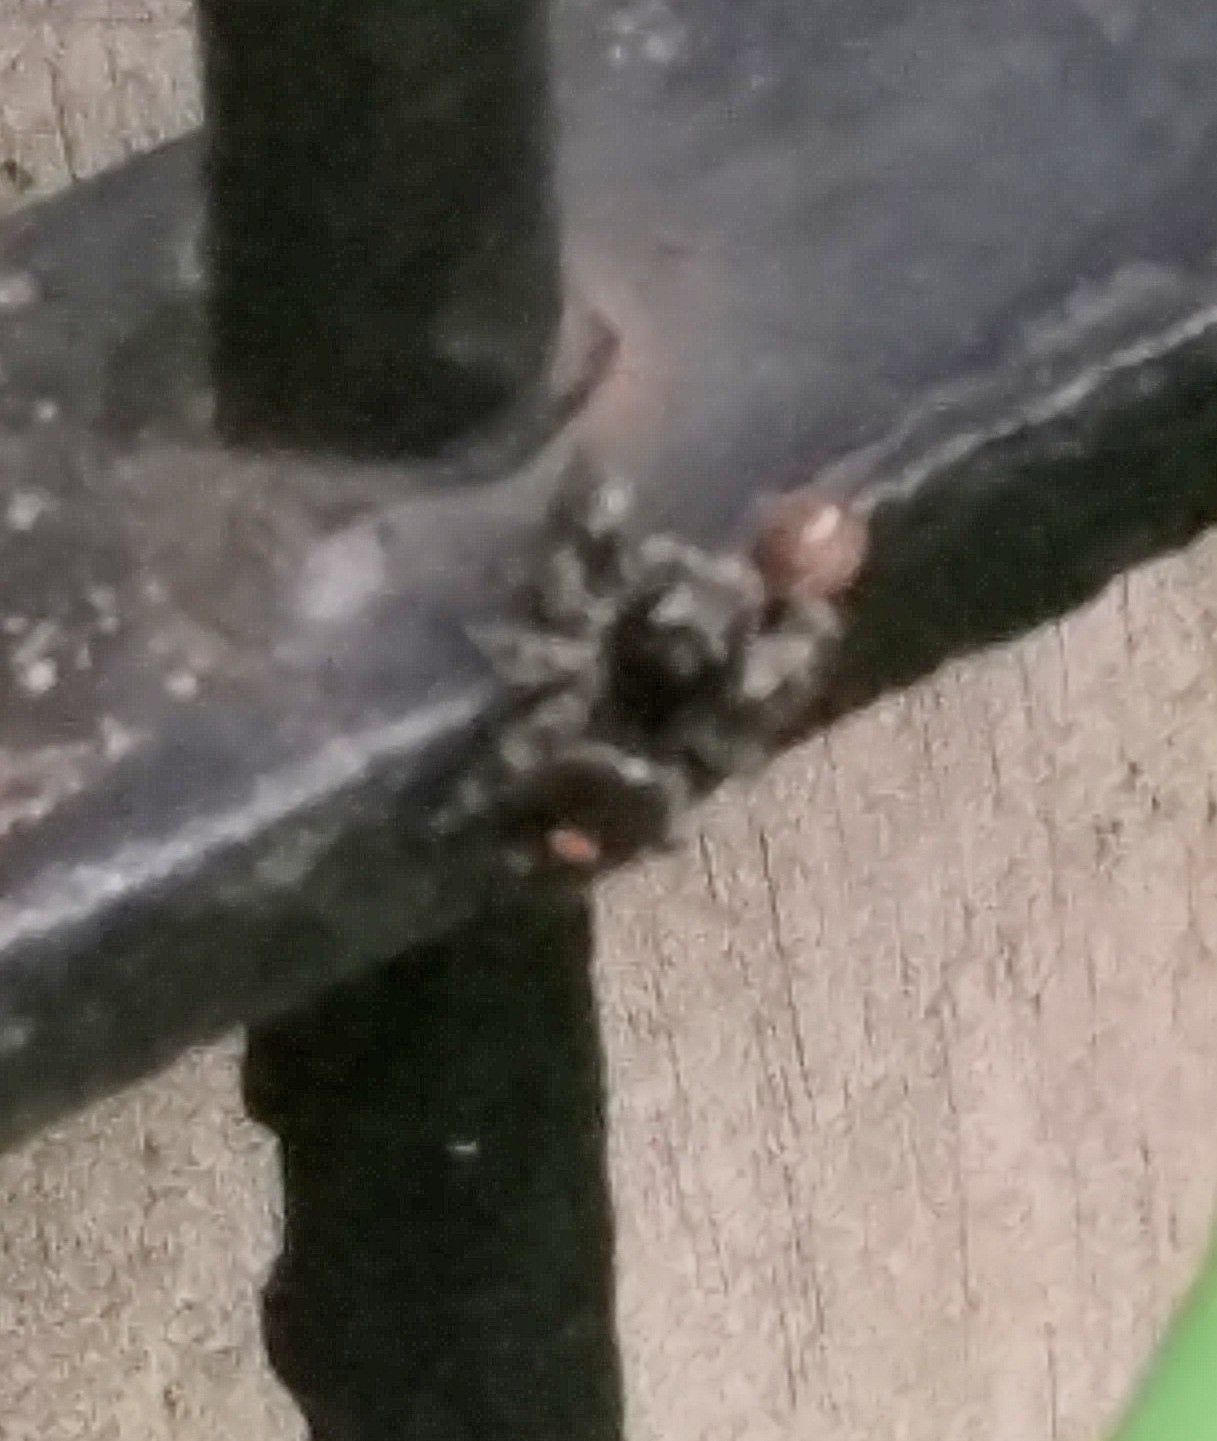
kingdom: Animalia
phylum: Arthropoda
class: Arachnida
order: Araneae
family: Salticidae
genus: Phidippus
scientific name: Phidippus audax
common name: Bold jumper
